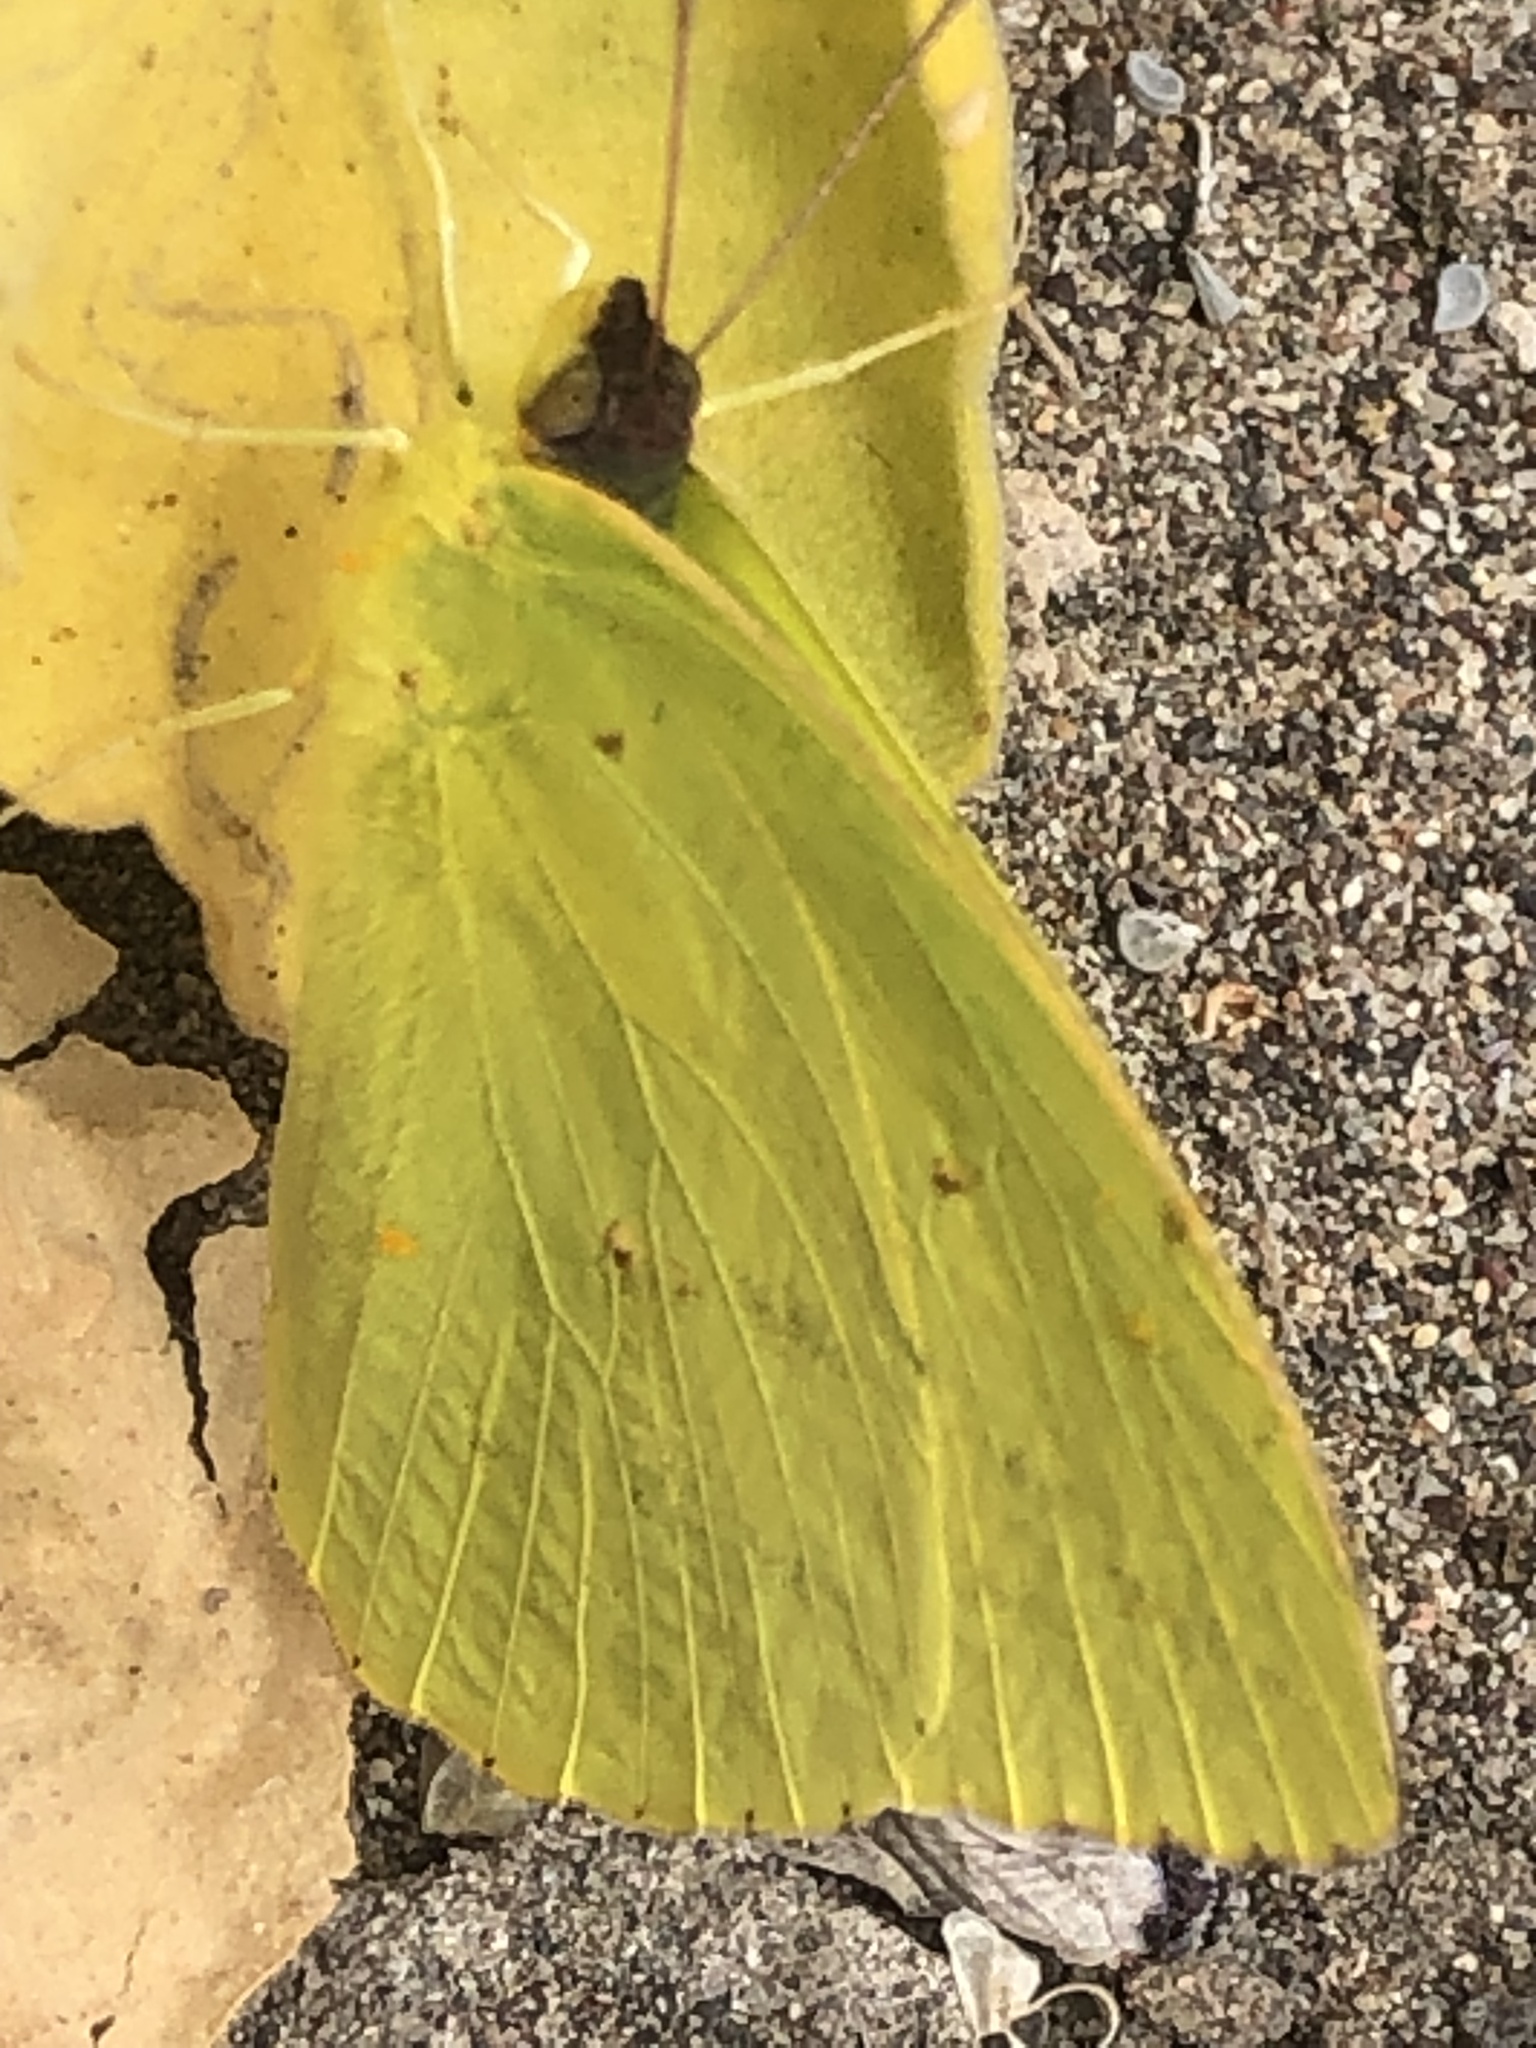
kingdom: Animalia
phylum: Arthropoda
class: Insecta
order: Lepidoptera
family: Pieridae
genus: Phoebis
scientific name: Phoebis sennae
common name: Cloudless sulphur
